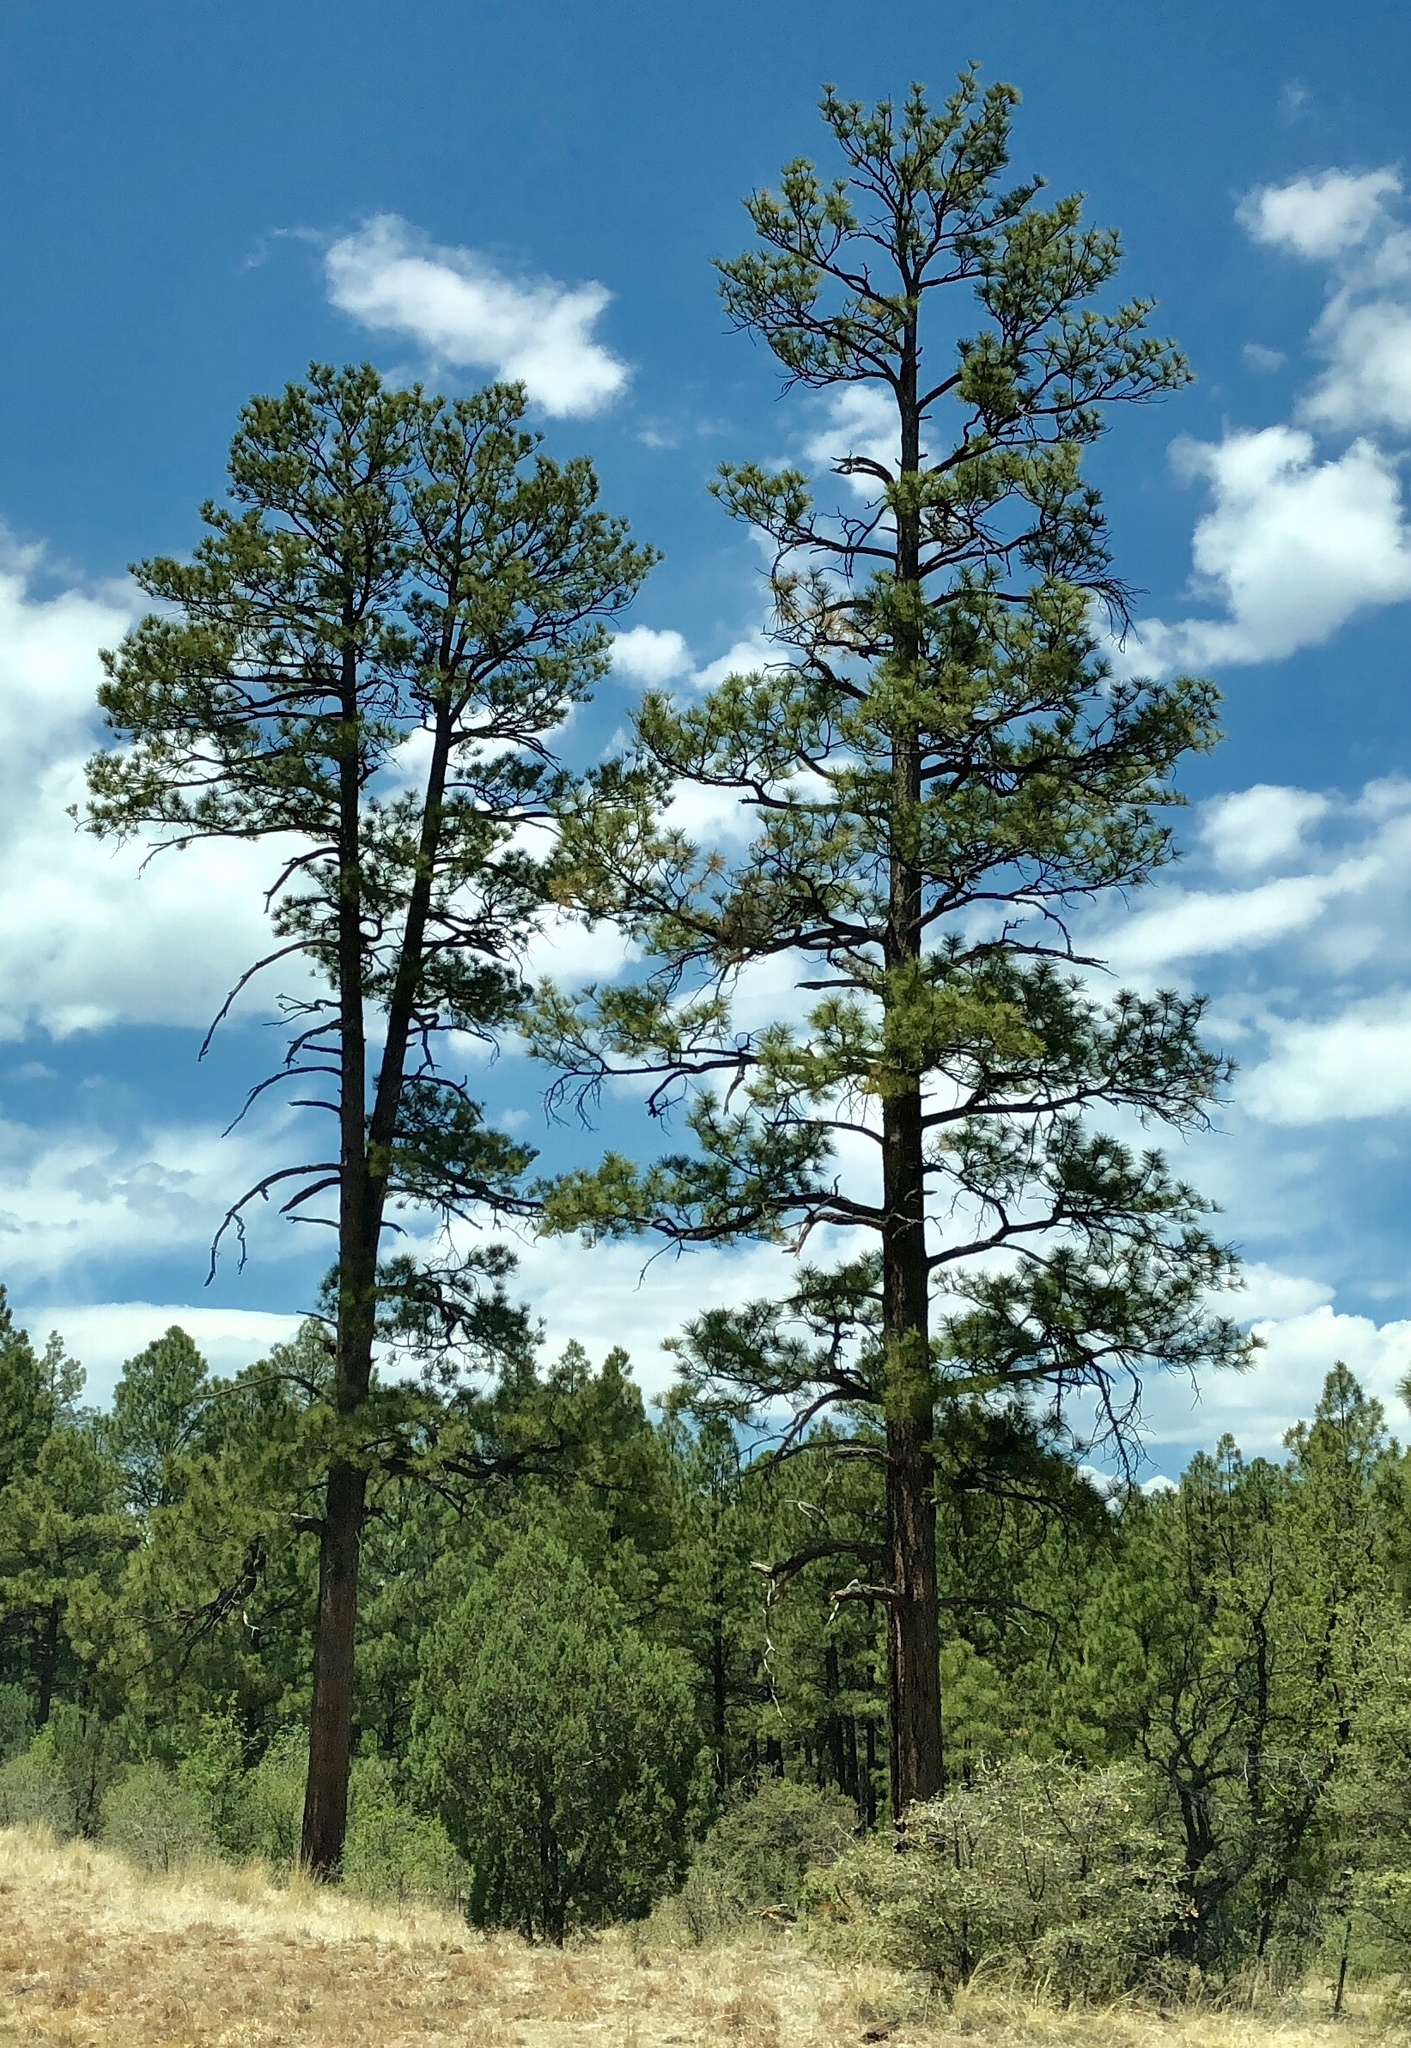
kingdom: Plantae
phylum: Tracheophyta
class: Pinopsida
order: Pinales
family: Pinaceae
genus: Pinus
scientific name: Pinus ponderosa
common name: Western yellow-pine
